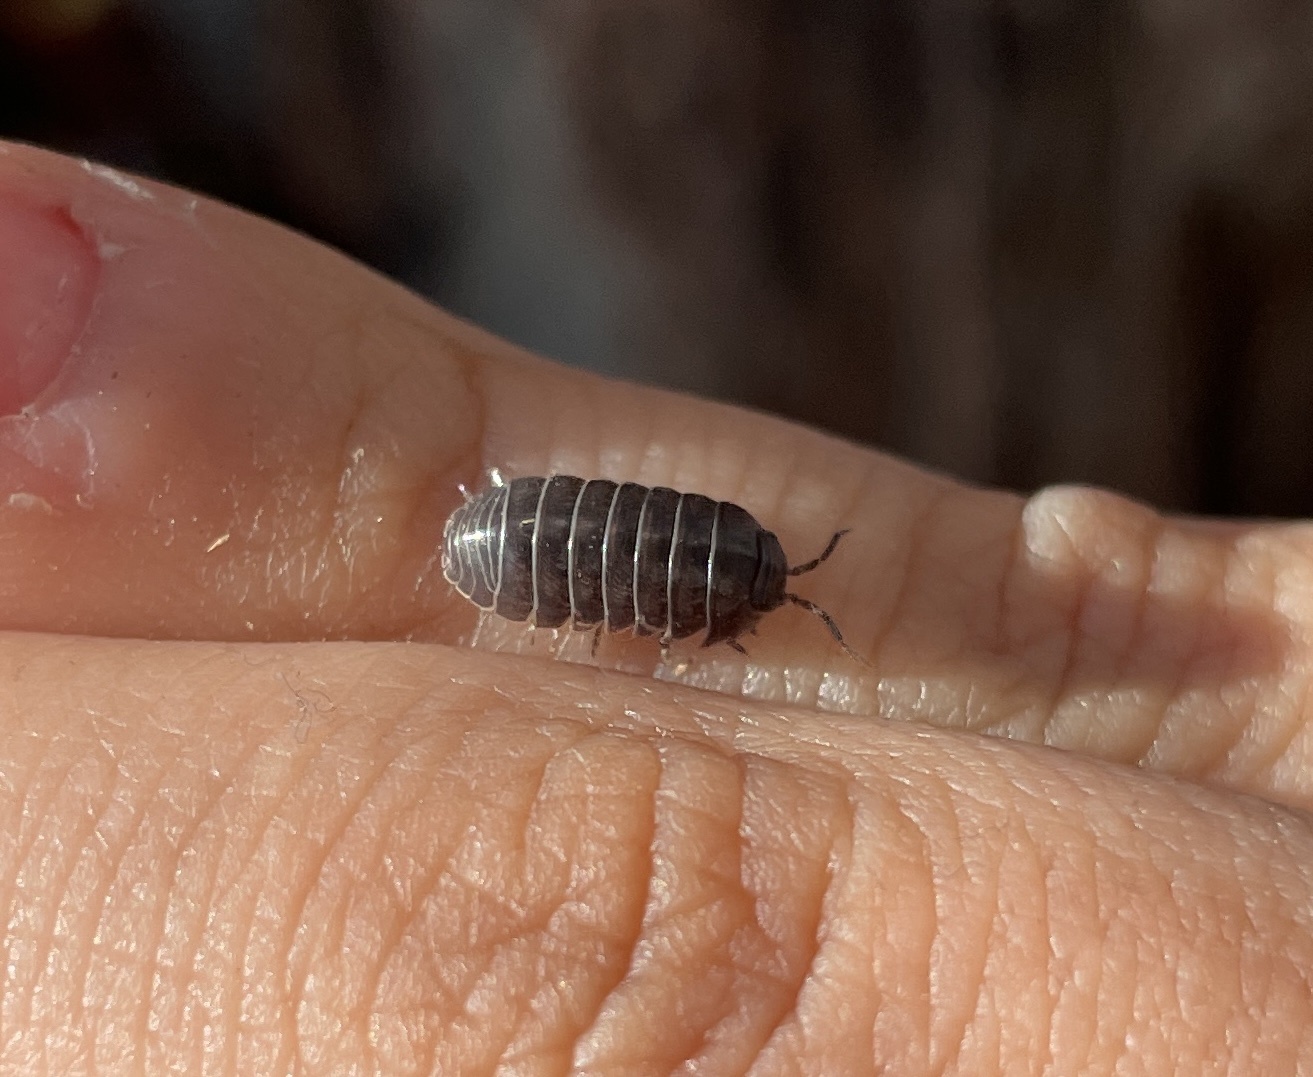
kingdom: Animalia
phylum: Arthropoda
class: Malacostraca
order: Isopoda
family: Armadillidiidae
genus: Armadillidium
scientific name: Armadillidium vulgare
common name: Common pill woodlouse
